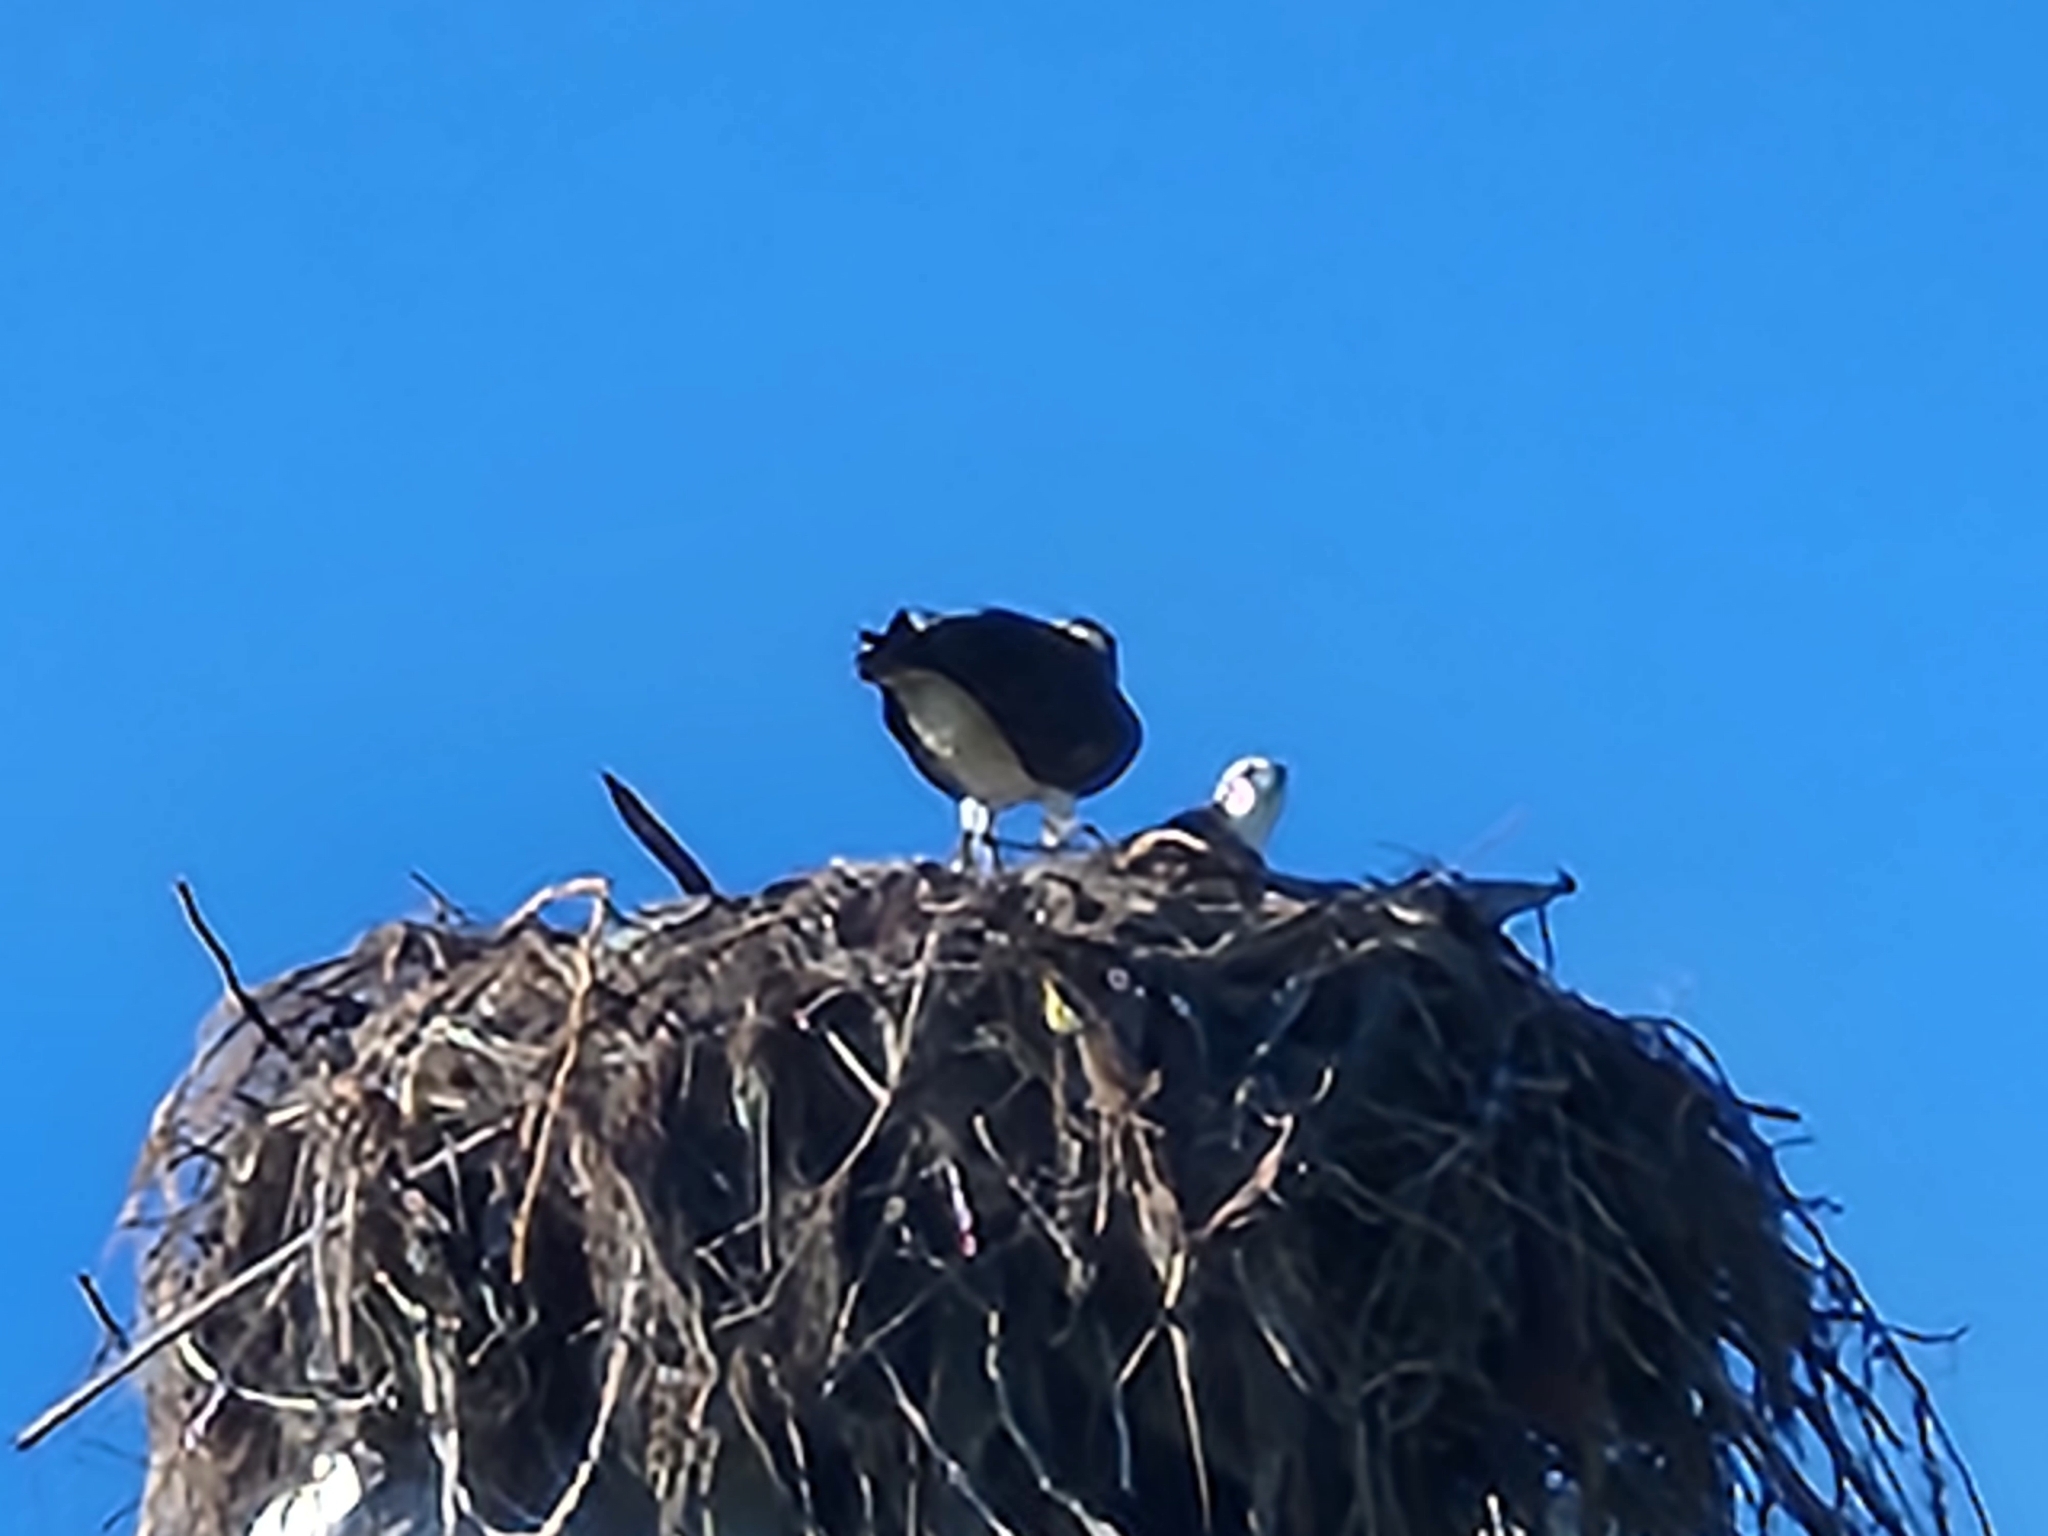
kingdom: Animalia
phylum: Chordata
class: Aves
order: Accipitriformes
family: Pandionidae
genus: Pandion
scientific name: Pandion haliaetus
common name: Osprey
